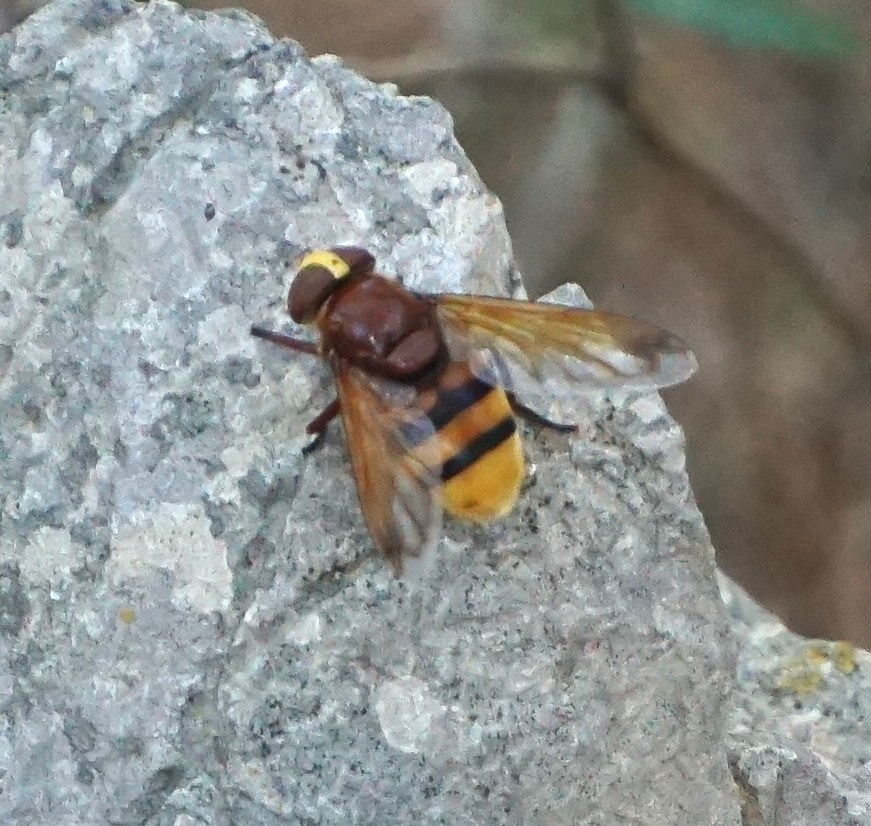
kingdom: Animalia
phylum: Arthropoda
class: Insecta
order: Diptera
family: Syrphidae
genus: Volucella
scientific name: Volucella zonaria
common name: Hornet hoverfly
